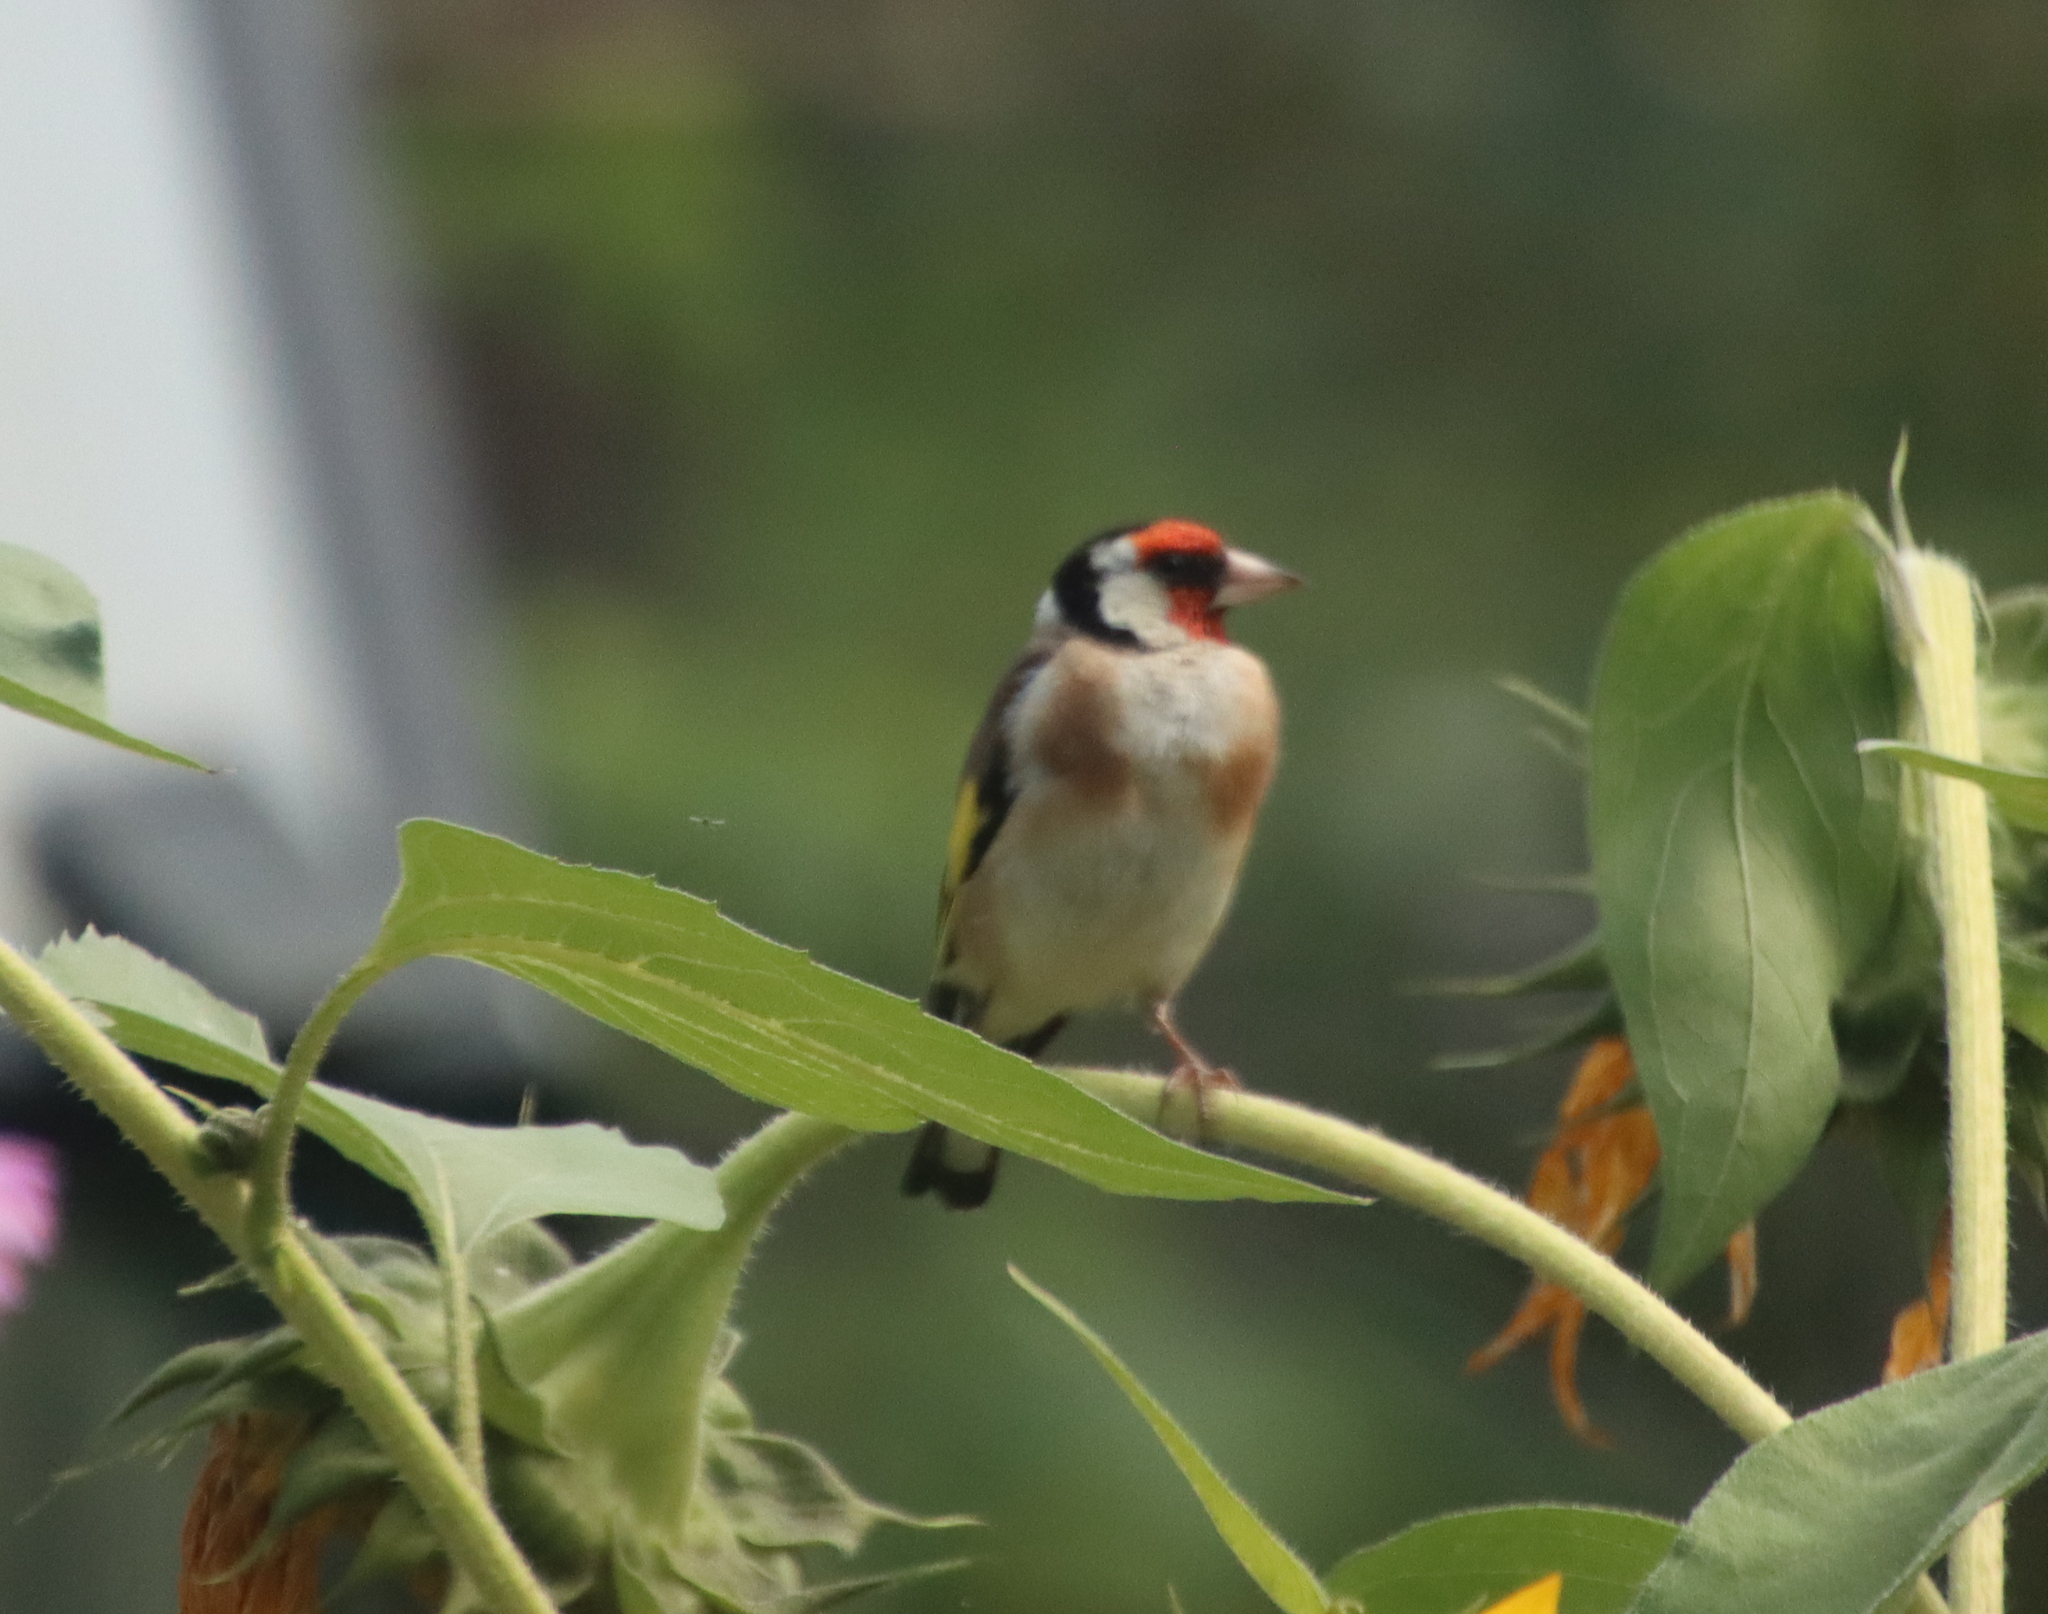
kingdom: Animalia
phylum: Chordata
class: Aves
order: Passeriformes
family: Fringillidae
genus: Carduelis
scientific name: Carduelis carduelis
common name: European goldfinch
